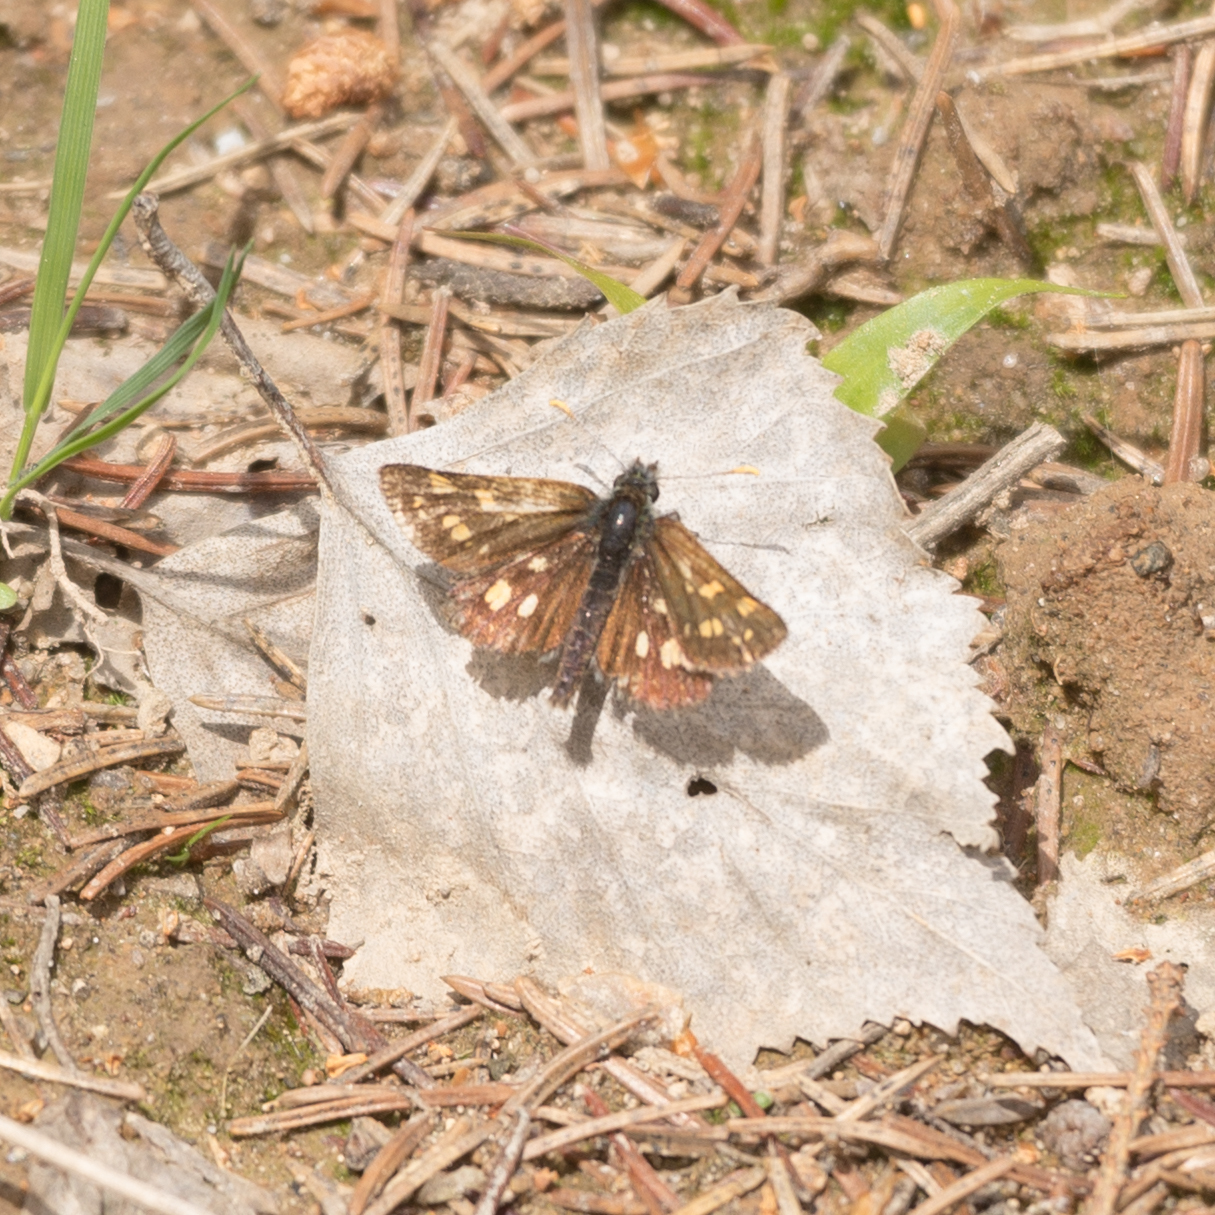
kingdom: Animalia
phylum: Arthropoda
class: Insecta
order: Lepidoptera
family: Hesperiidae
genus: Carterocephalus
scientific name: Carterocephalus palaemon
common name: Chequered skipper
